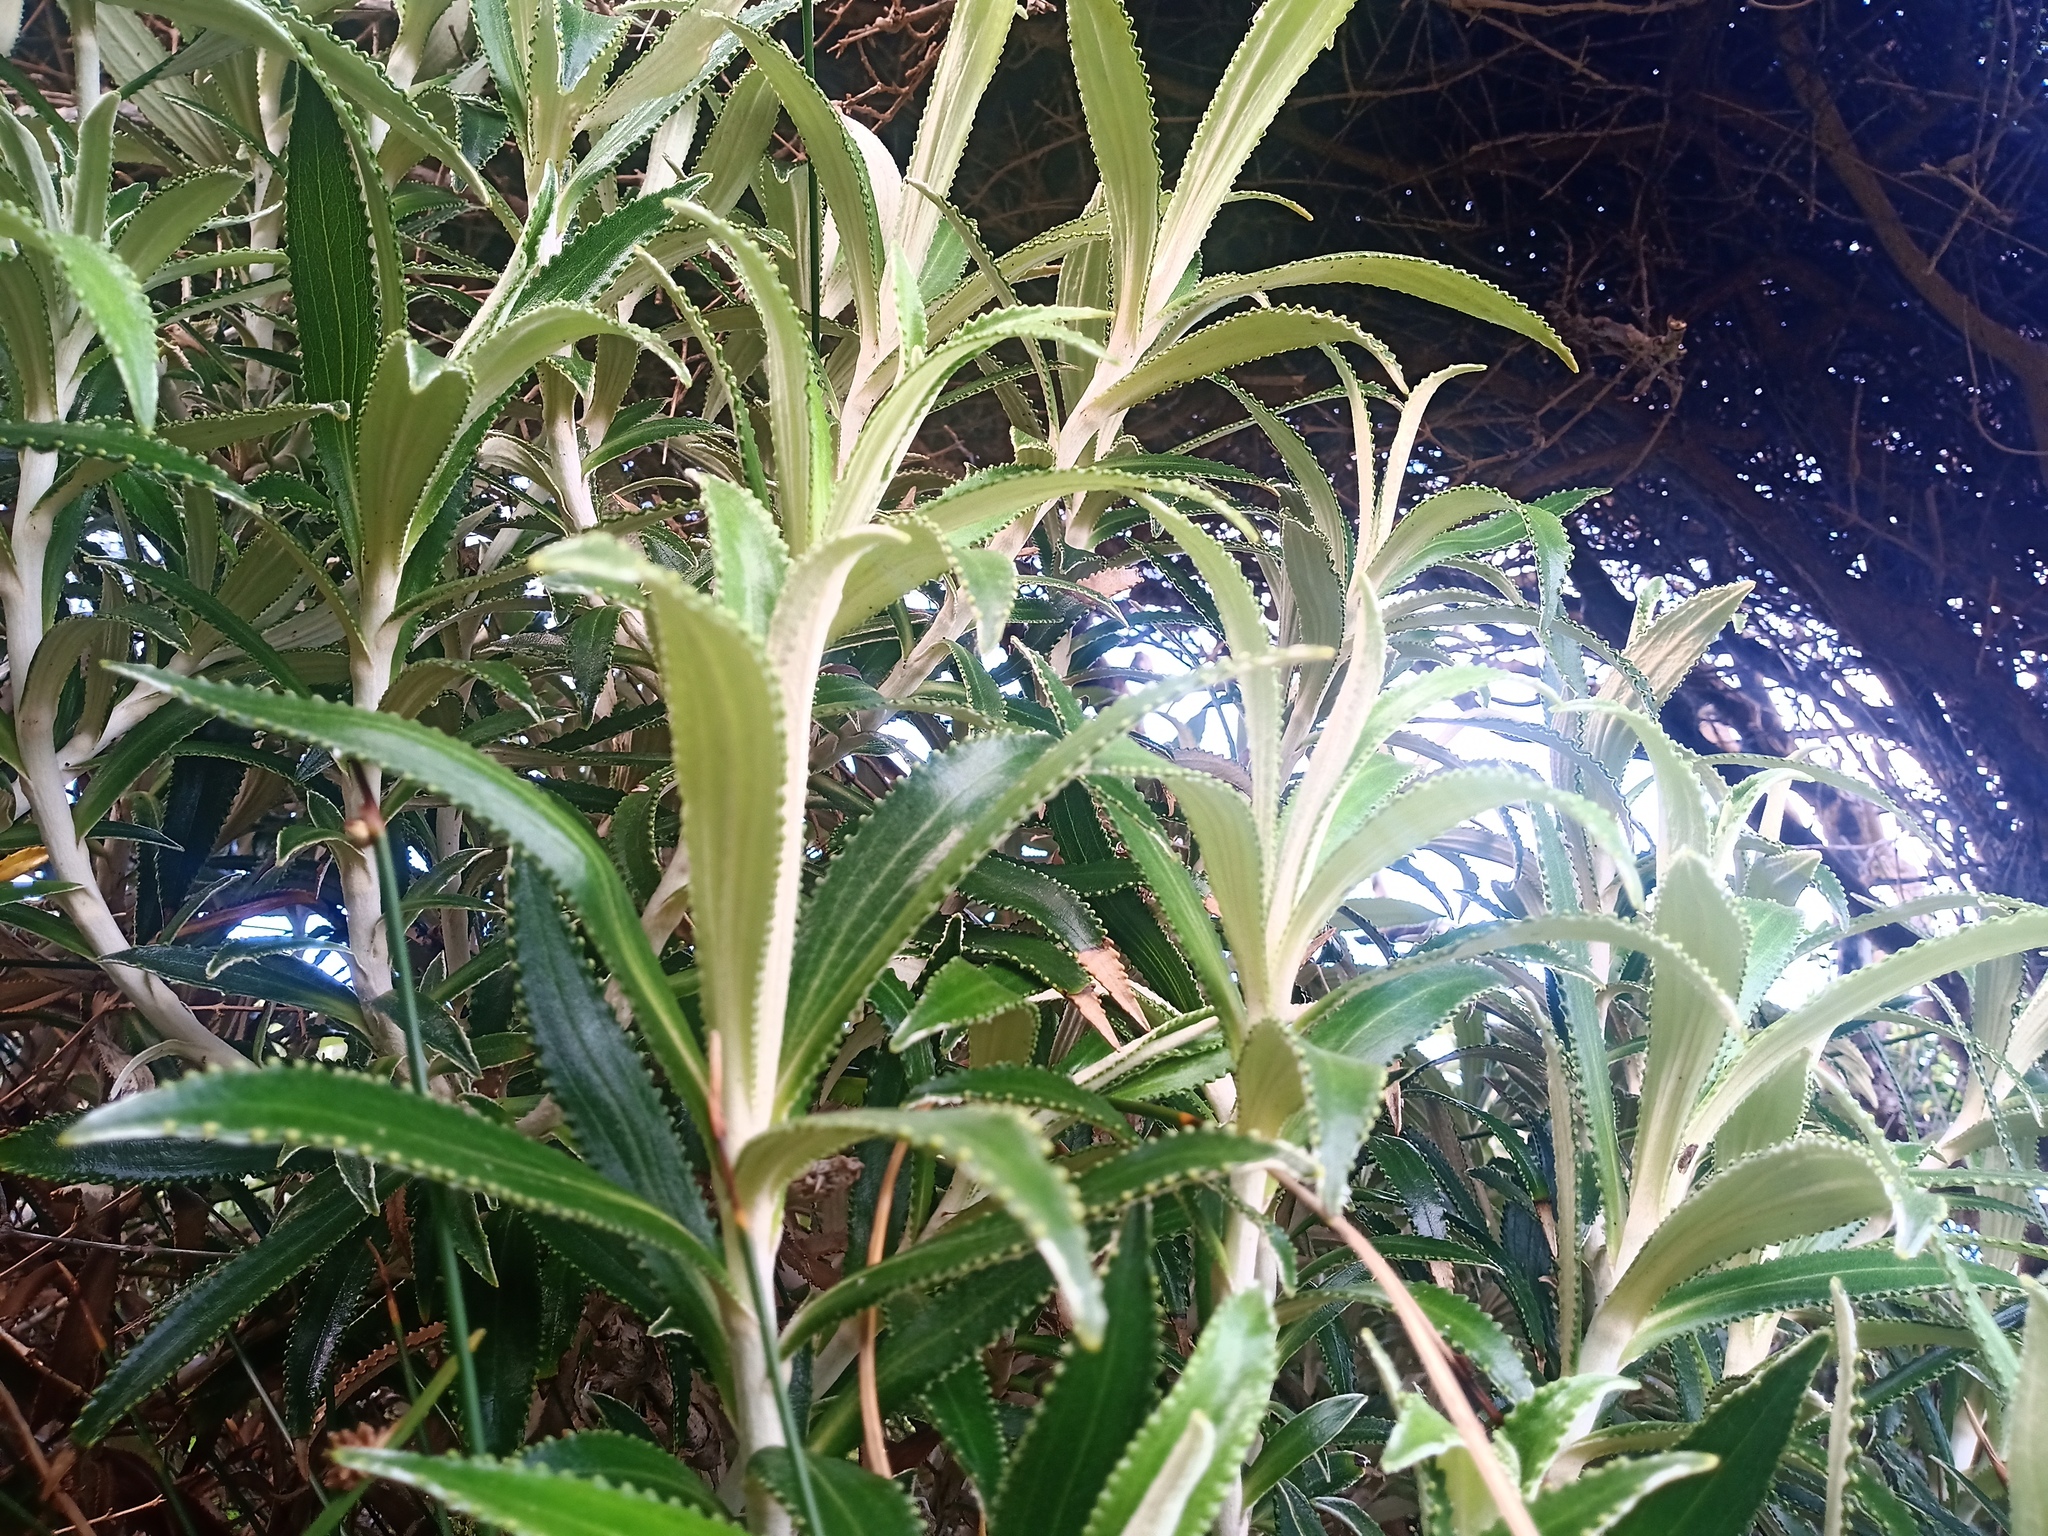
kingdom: Plantae
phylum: Tracheophyta
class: Magnoliopsida
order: Asterales
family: Asteraceae
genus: Macrolearia
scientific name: Macrolearia angustifolia
